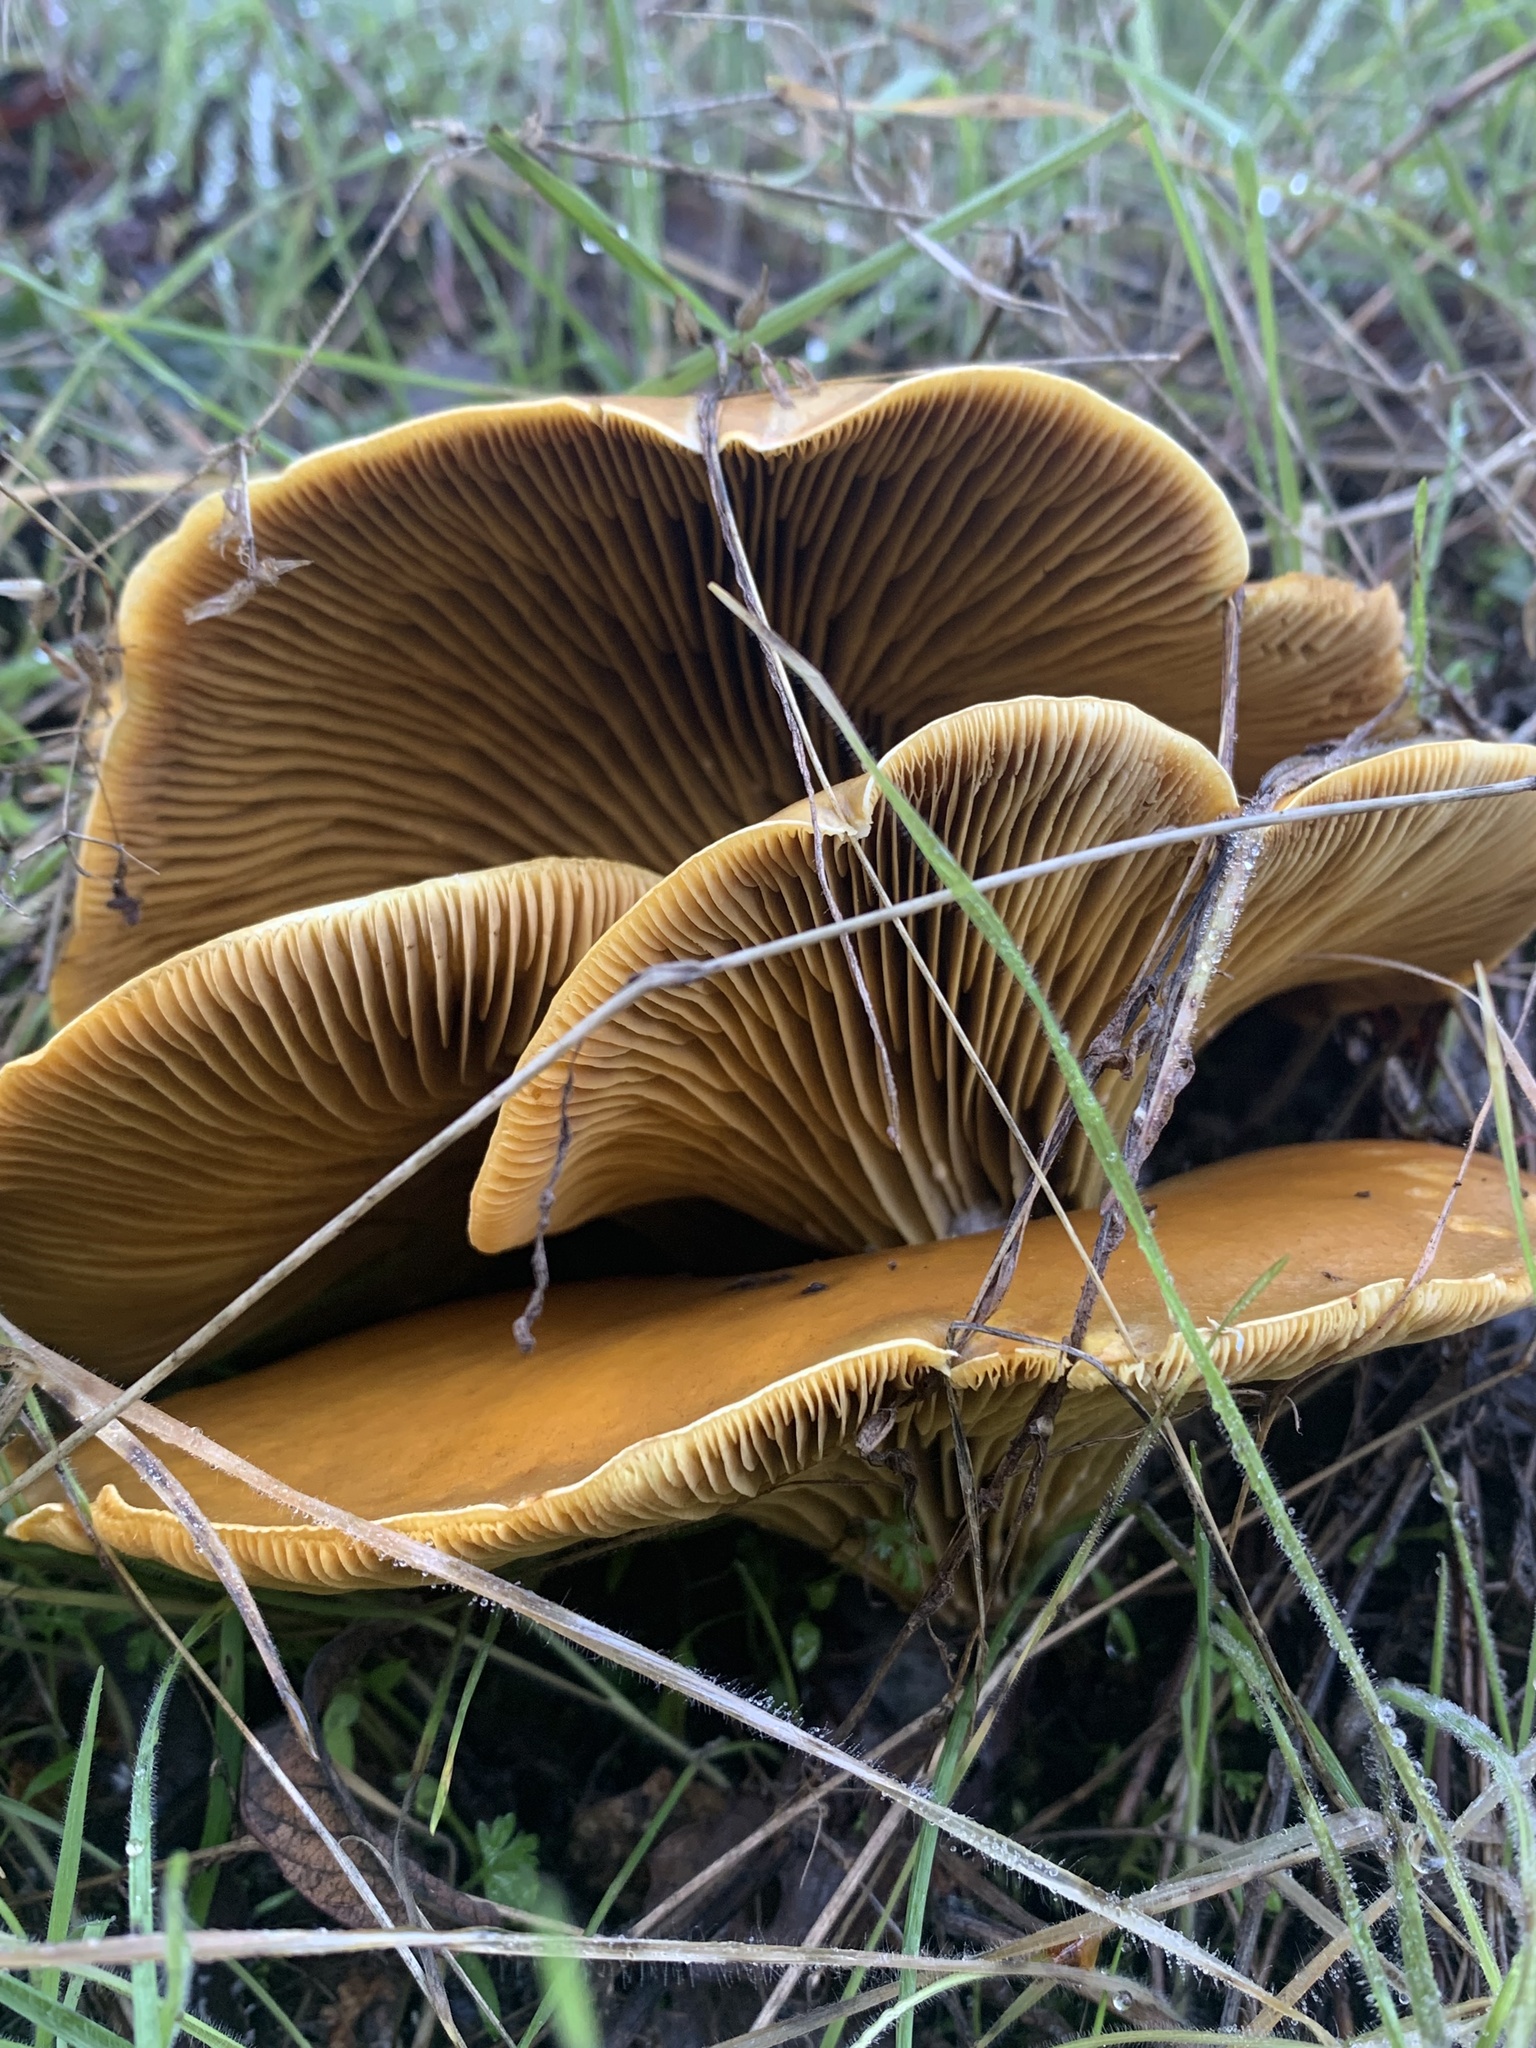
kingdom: Fungi
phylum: Basidiomycota
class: Agaricomycetes
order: Agaricales
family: Omphalotaceae
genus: Omphalotus
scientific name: Omphalotus olivascens
